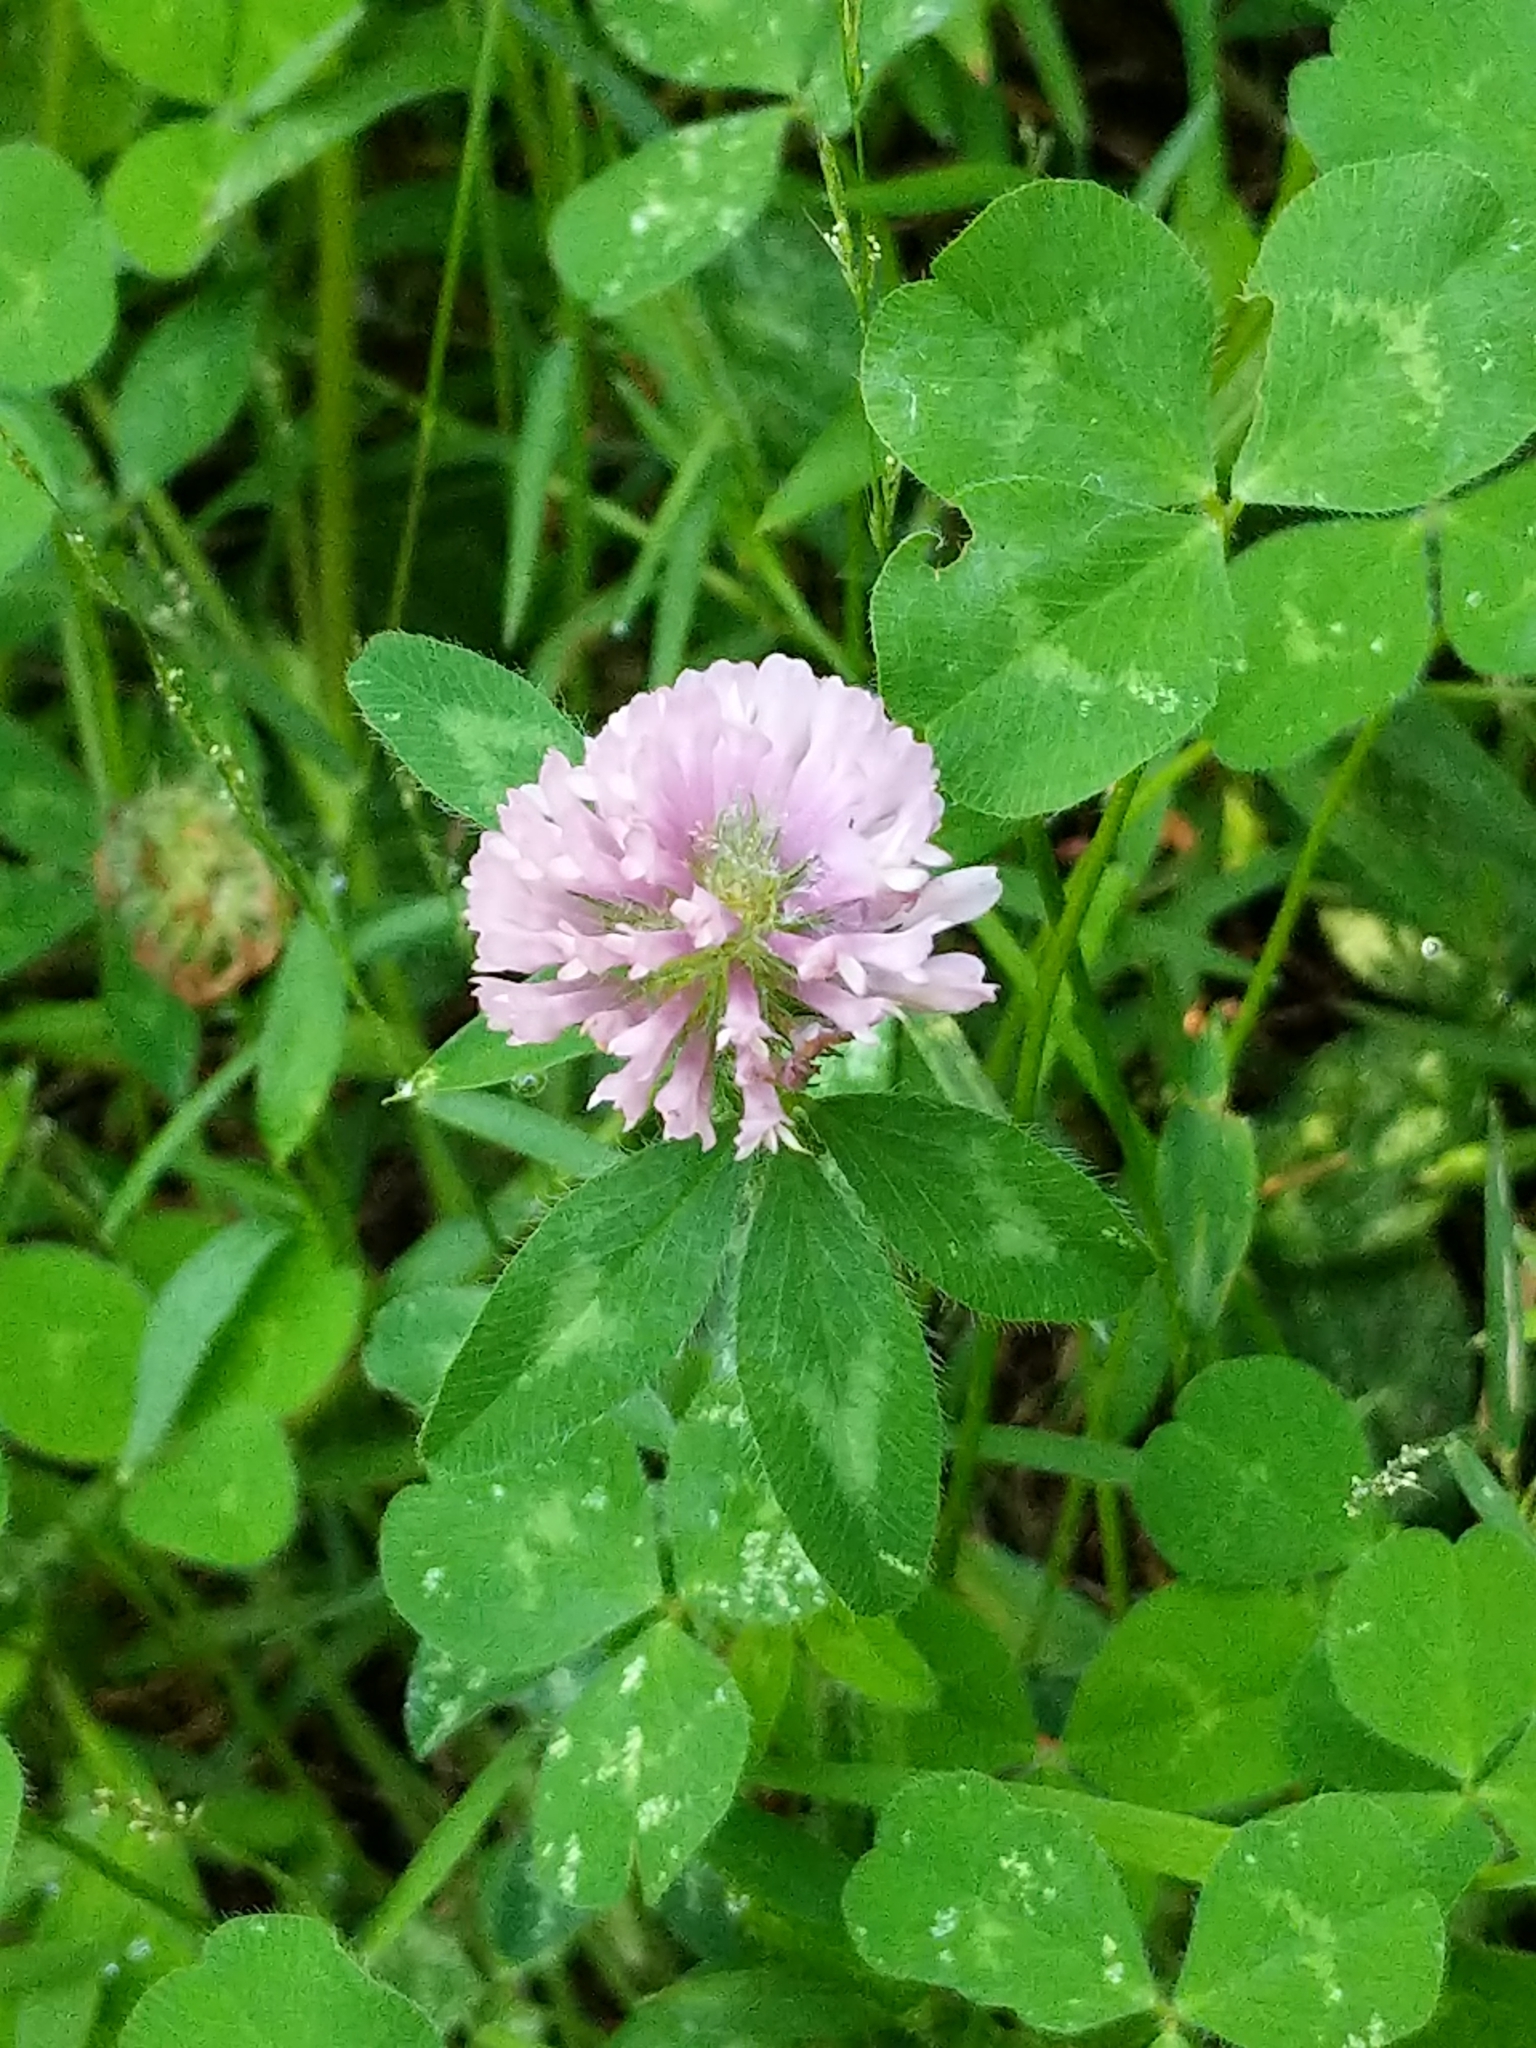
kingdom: Plantae
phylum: Tracheophyta
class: Magnoliopsida
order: Fabales
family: Fabaceae
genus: Trifolium
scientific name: Trifolium pratense
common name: Red clover
